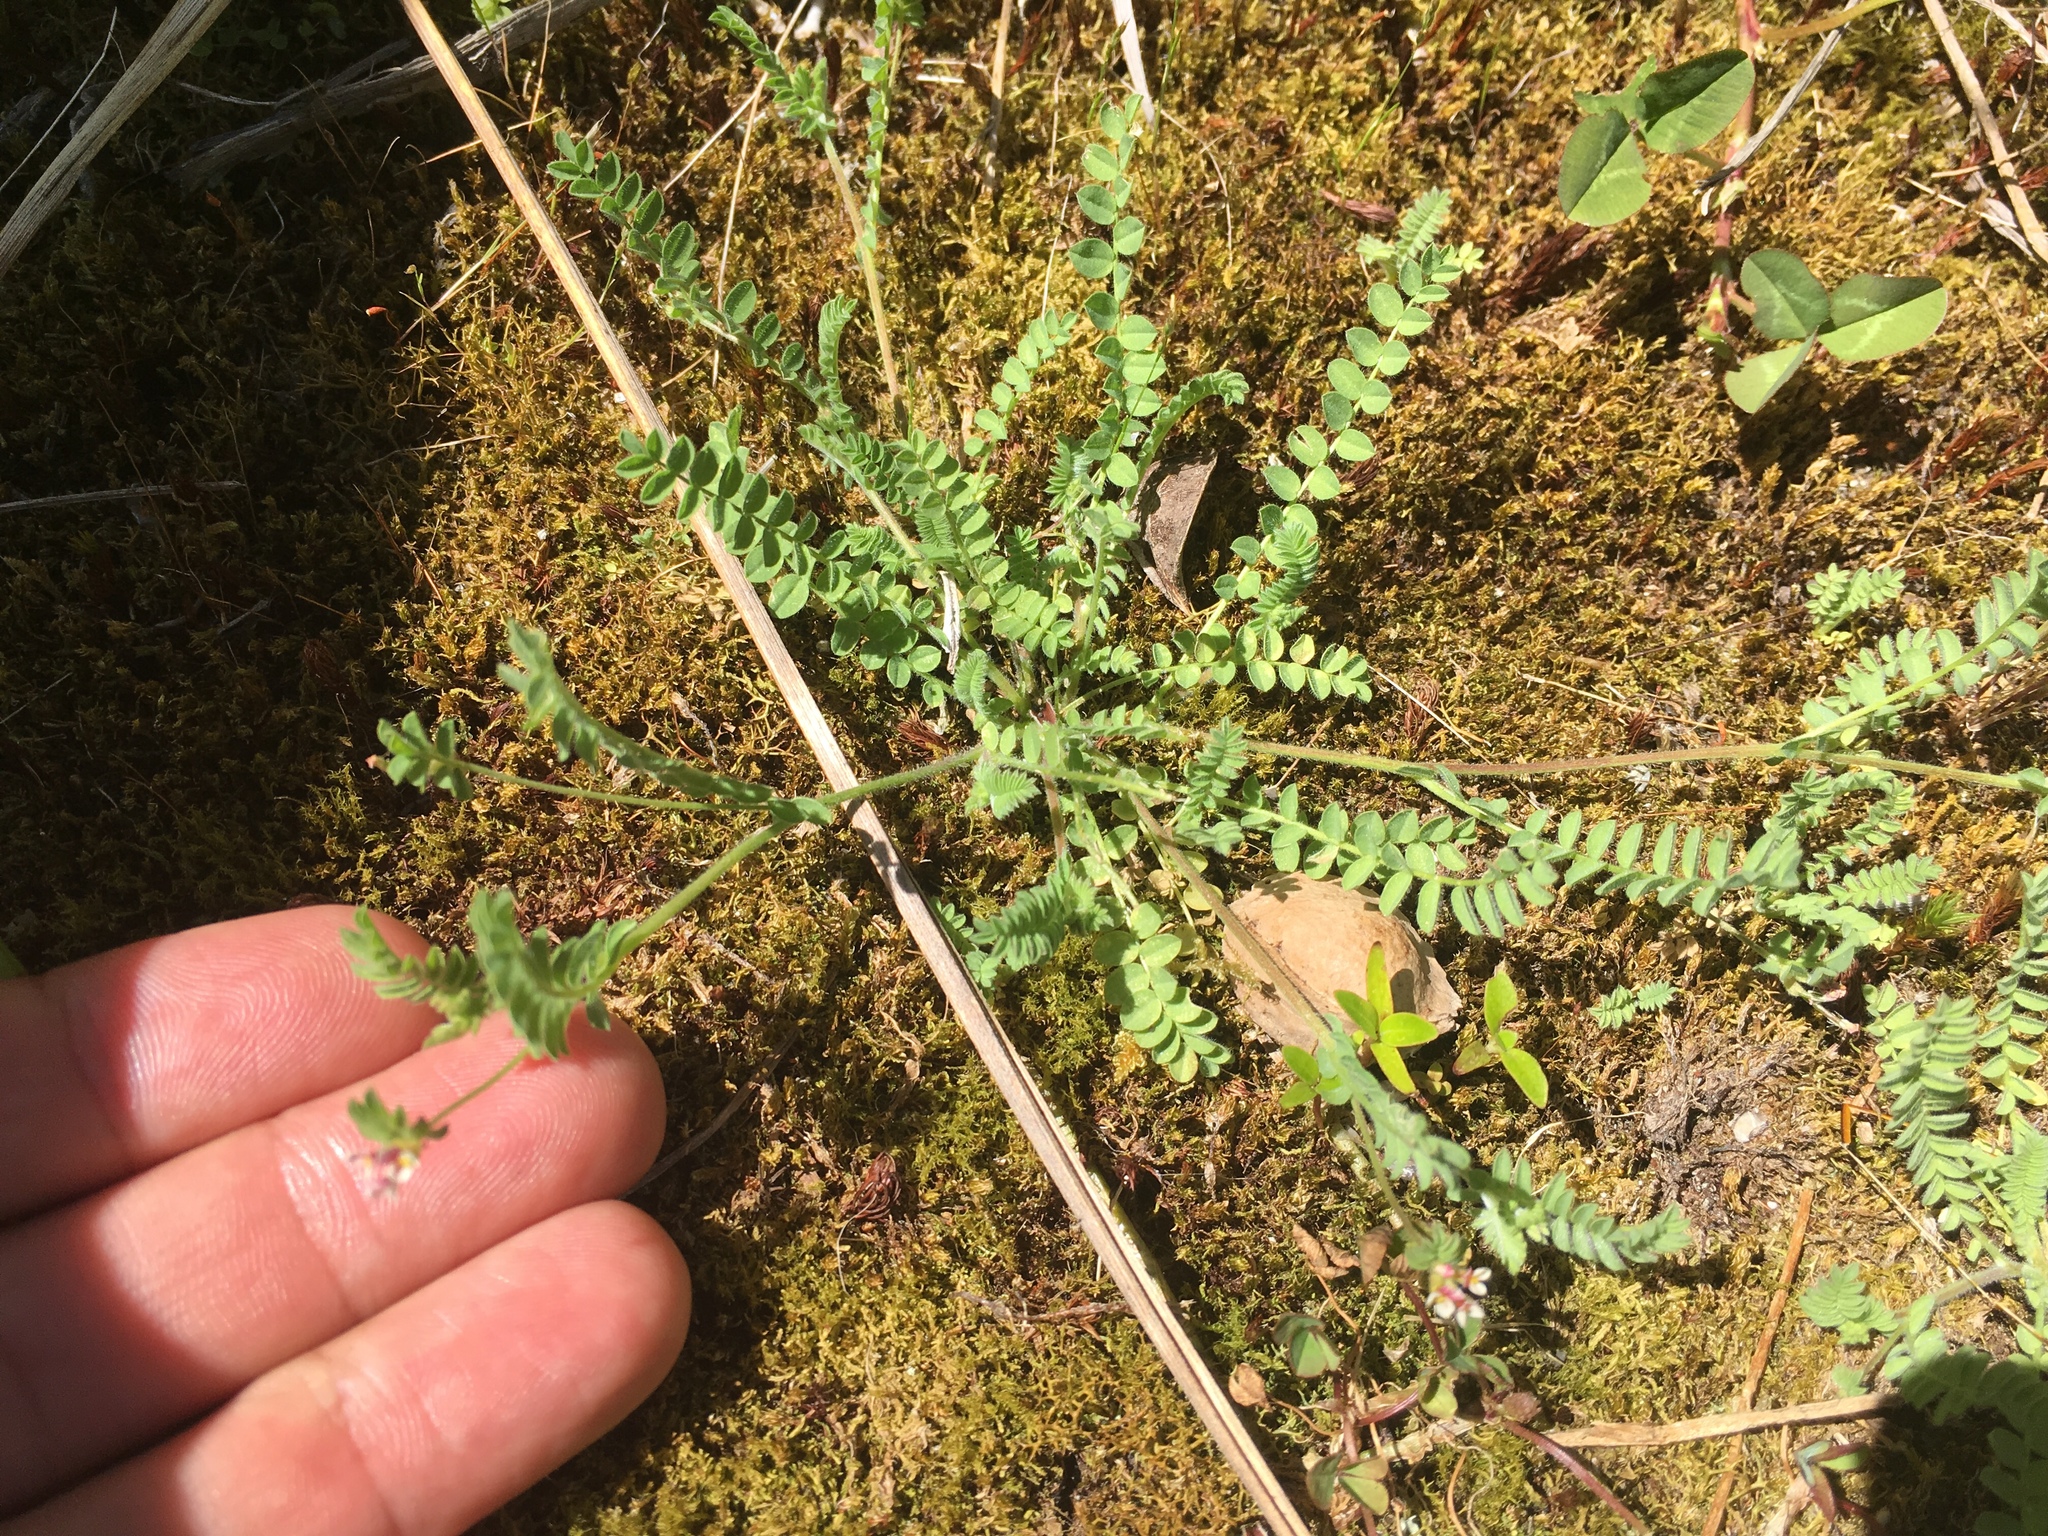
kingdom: Plantae
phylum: Tracheophyta
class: Magnoliopsida
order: Fabales
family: Fabaceae
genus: Coronilla
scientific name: Coronilla varia
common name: Crownvetch
